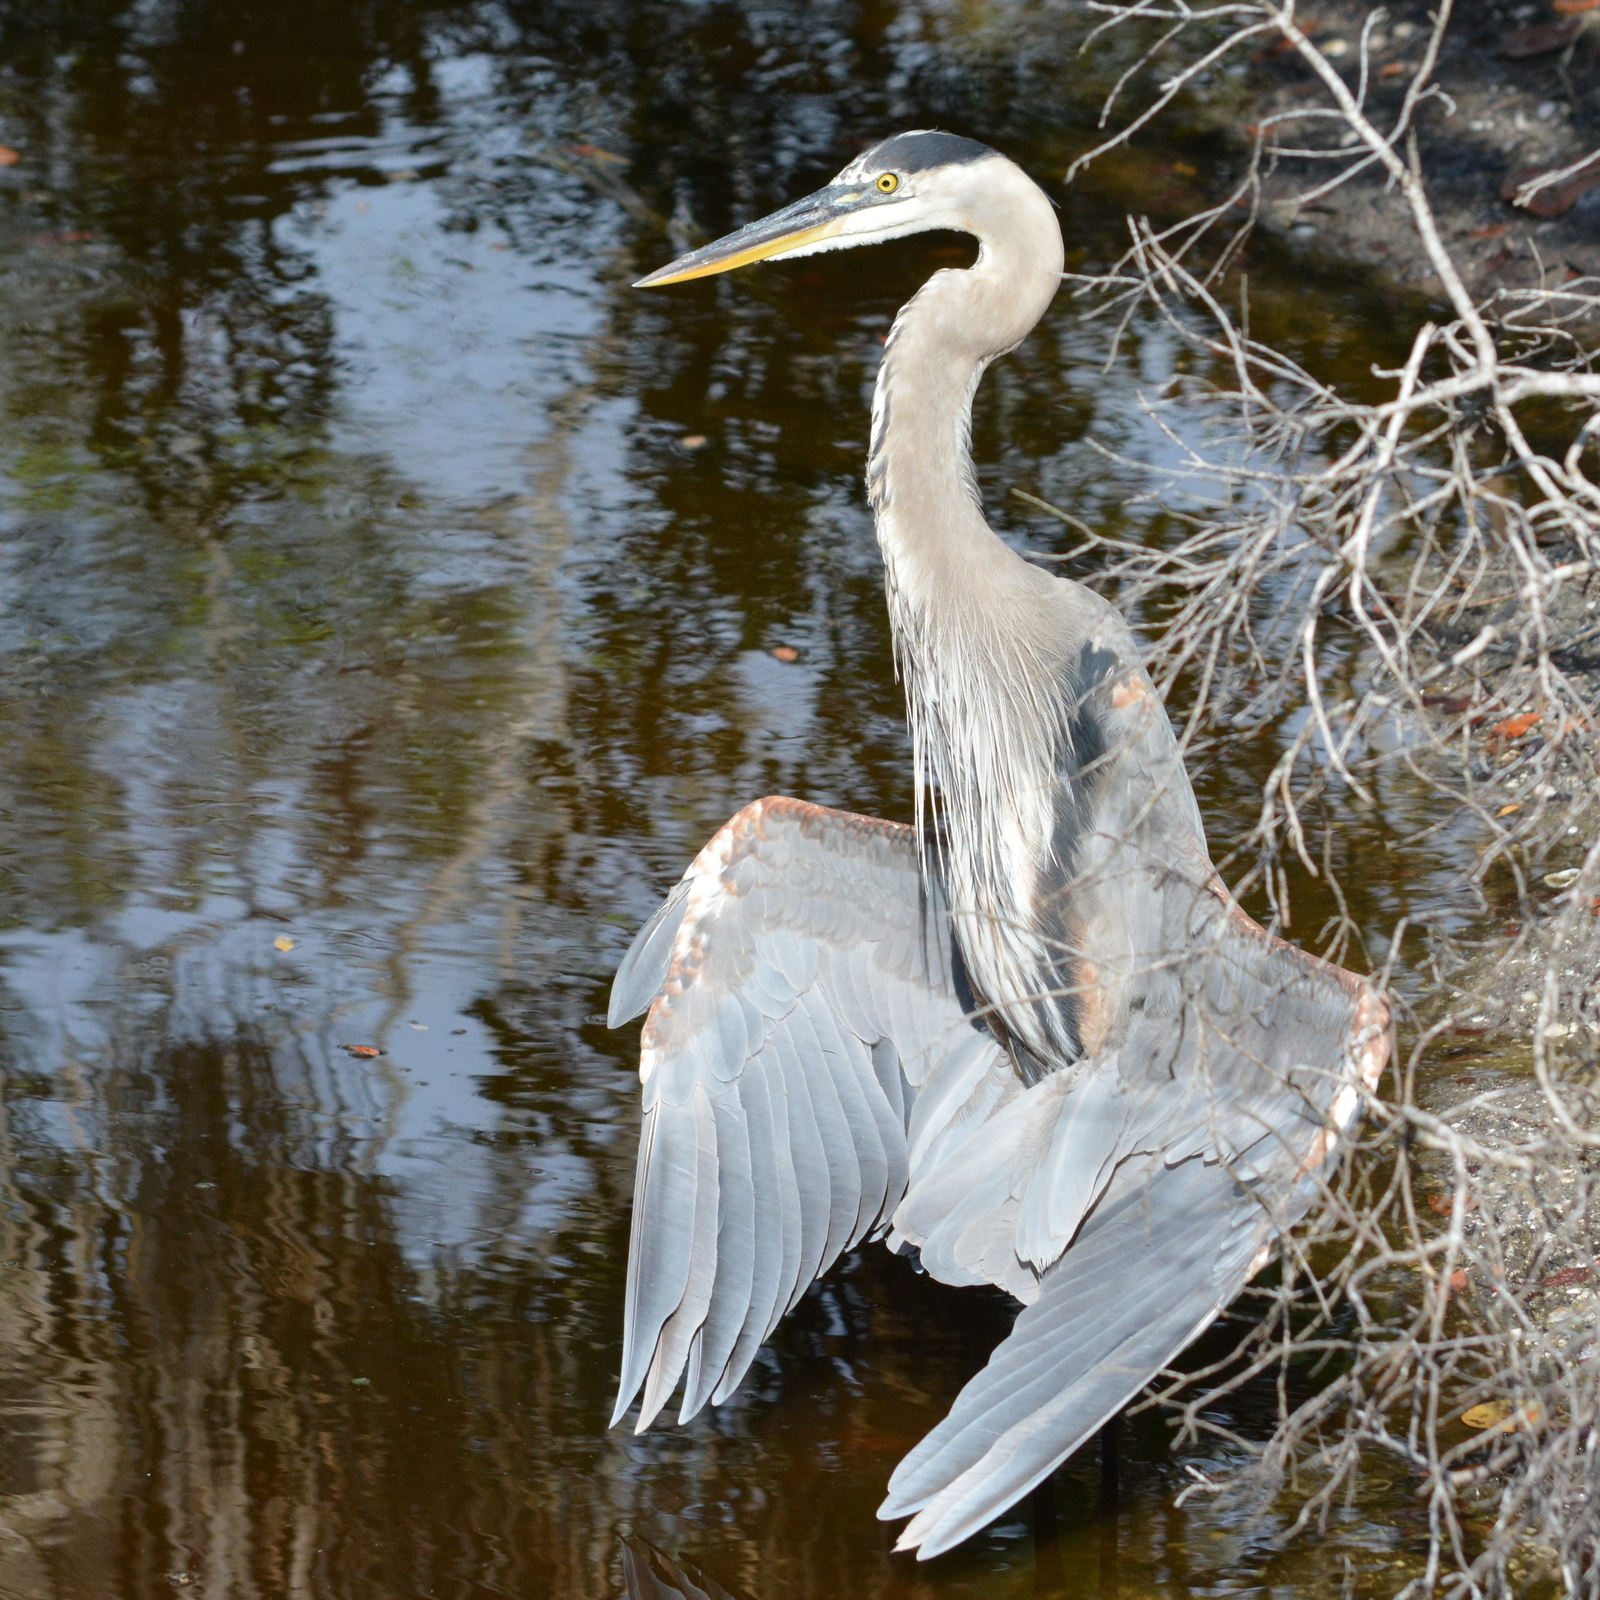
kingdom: Animalia
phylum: Chordata
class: Aves
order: Pelecaniformes
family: Ardeidae
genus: Ardea
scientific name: Ardea herodias
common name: Great blue heron
